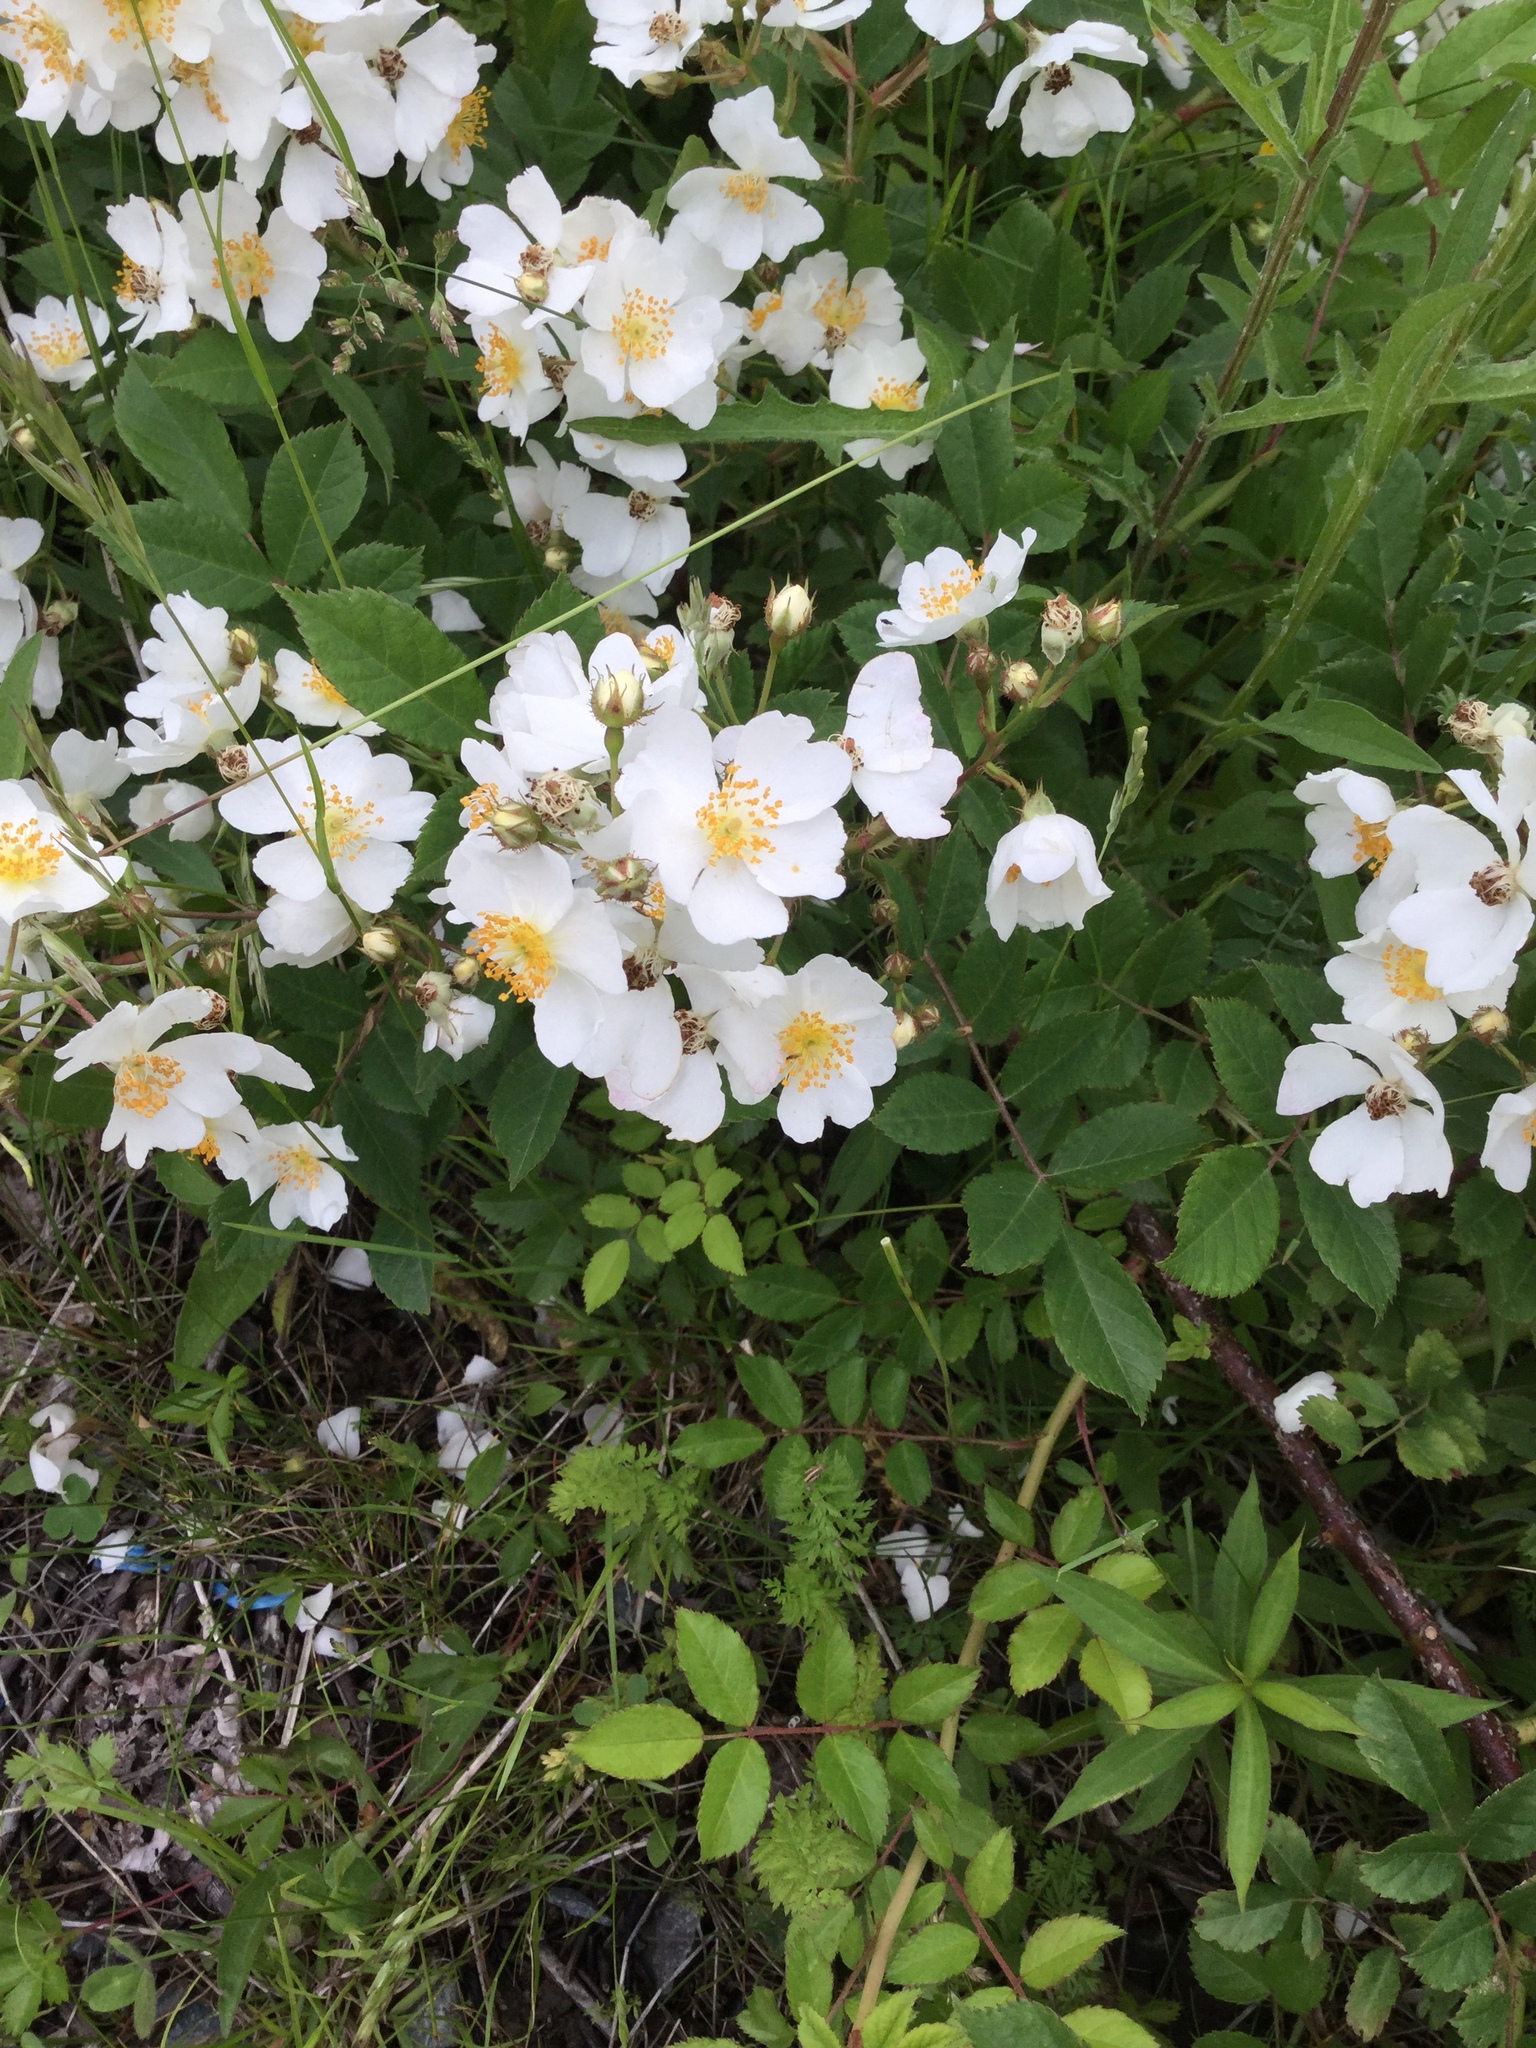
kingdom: Plantae
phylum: Tracheophyta
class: Magnoliopsida
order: Rosales
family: Rosaceae
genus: Rosa
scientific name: Rosa multiflora
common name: Multiflora rose
